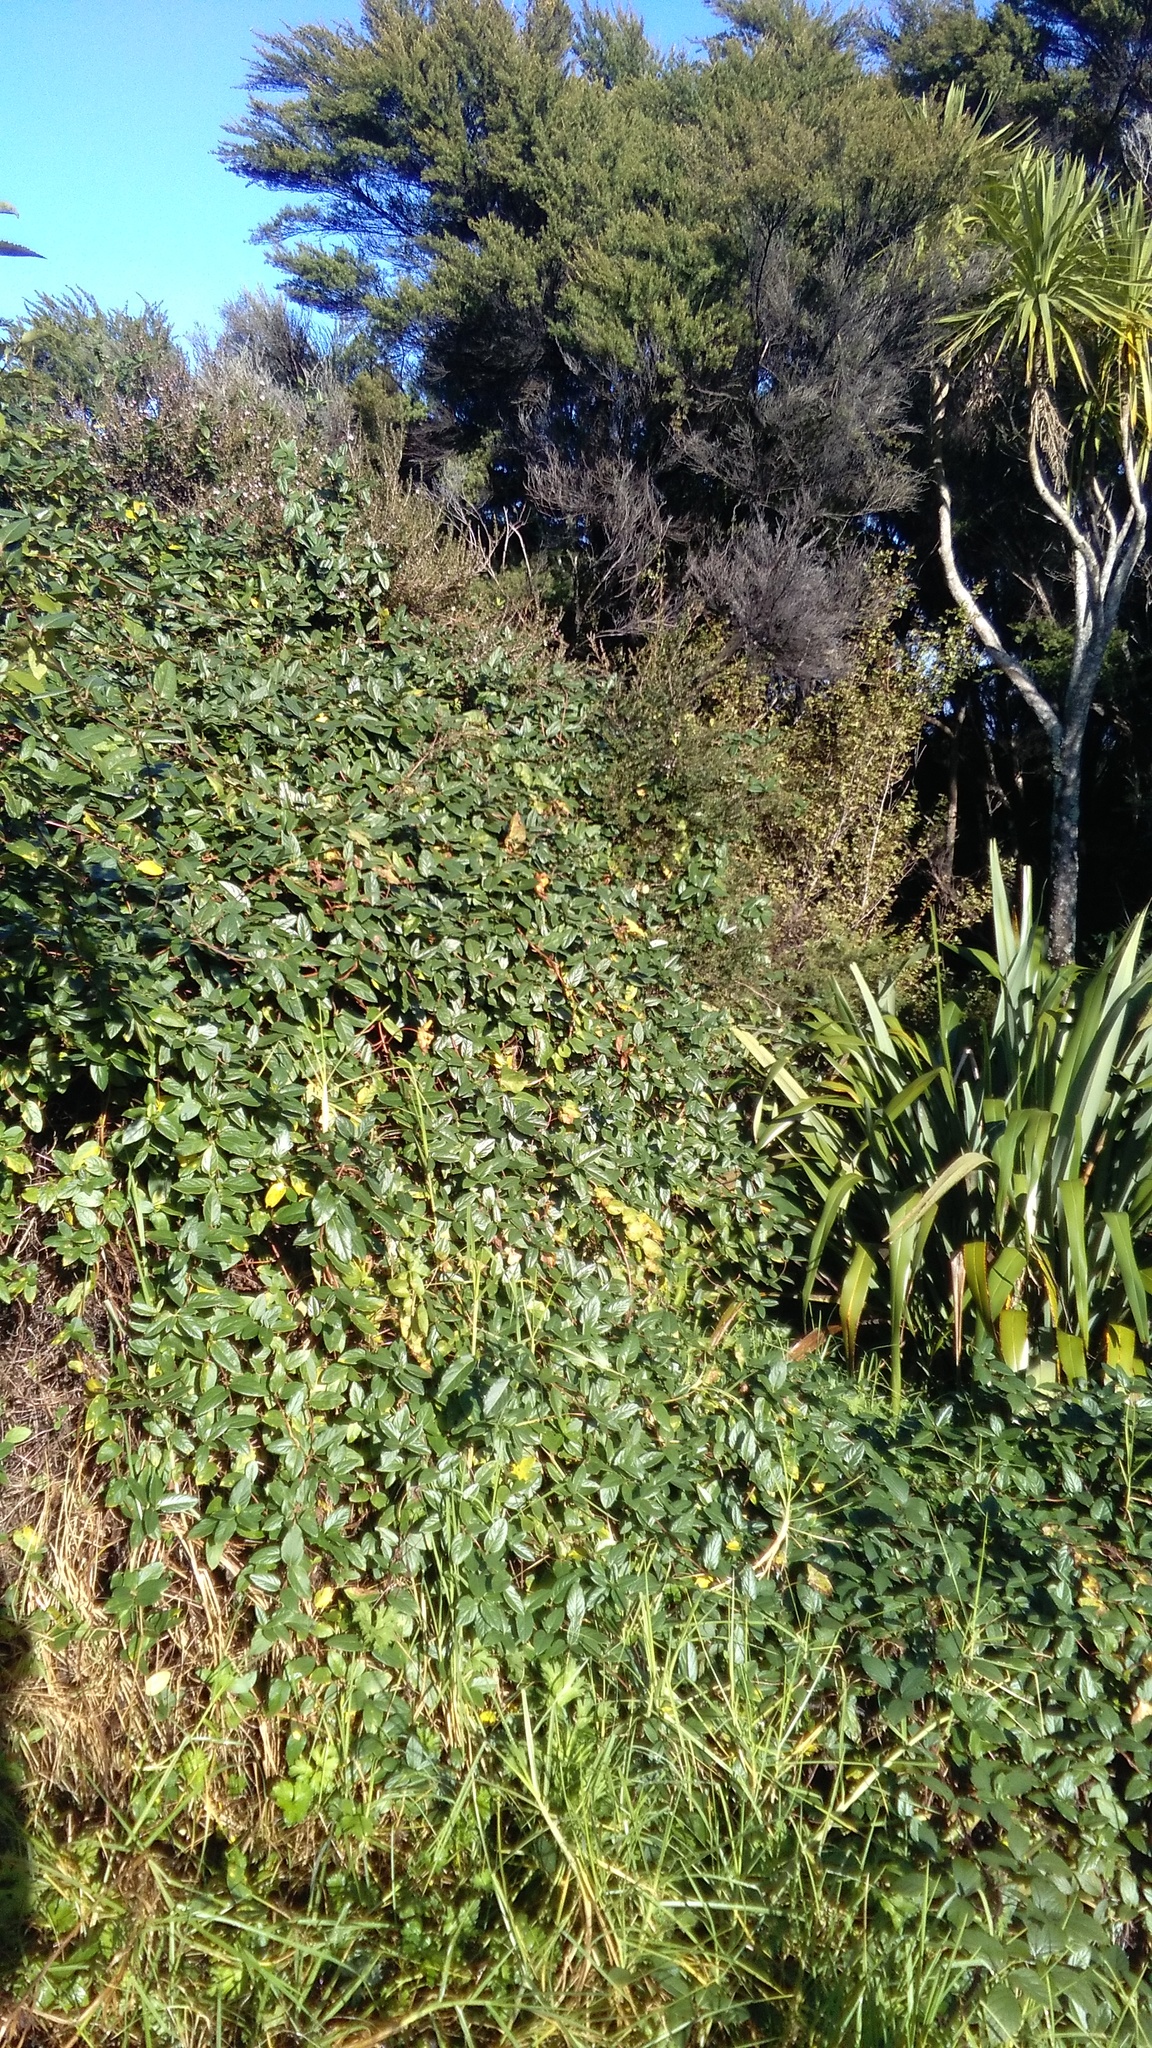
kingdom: Plantae
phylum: Tracheophyta
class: Magnoliopsida
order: Myrtales
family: Myrtaceae
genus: Leptospermum
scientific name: Leptospermum scoparium
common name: Broom tea-tree
